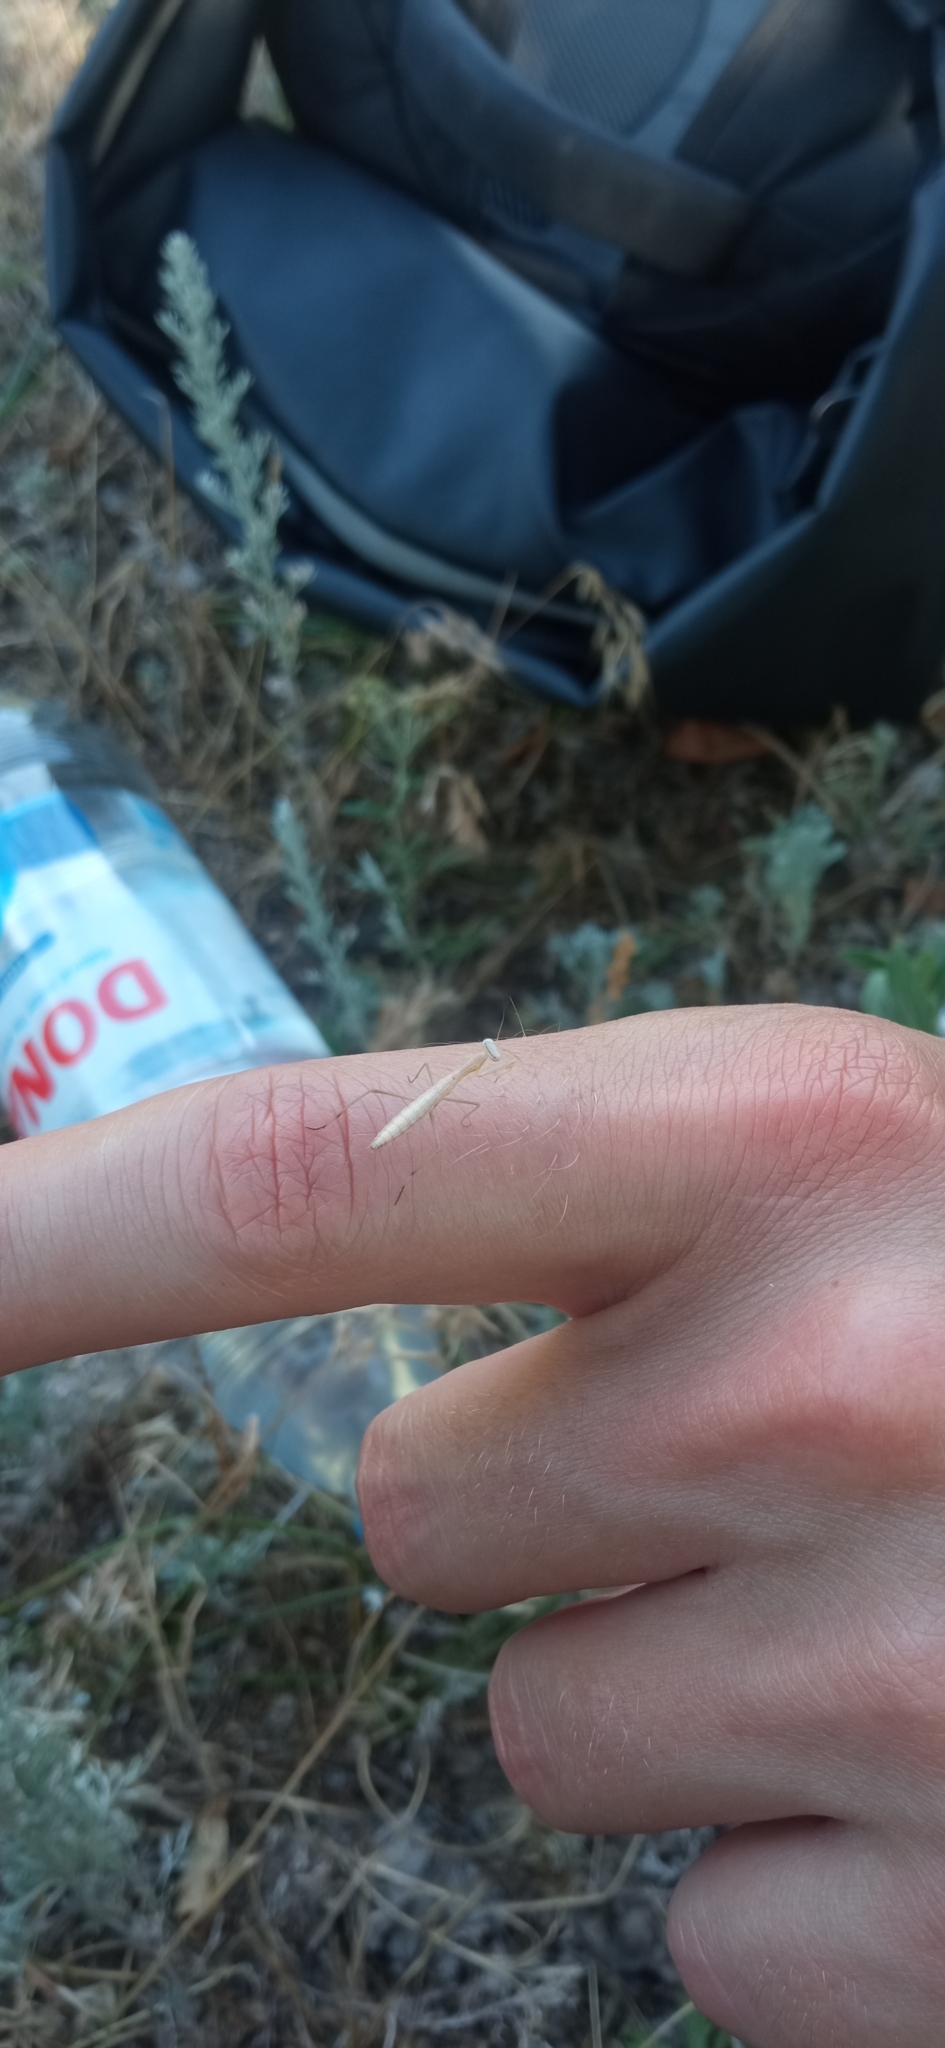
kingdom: Animalia
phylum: Arthropoda
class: Insecta
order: Mantodea
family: Mantidae
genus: Mantis
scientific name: Mantis religiosa
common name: Praying mantis
